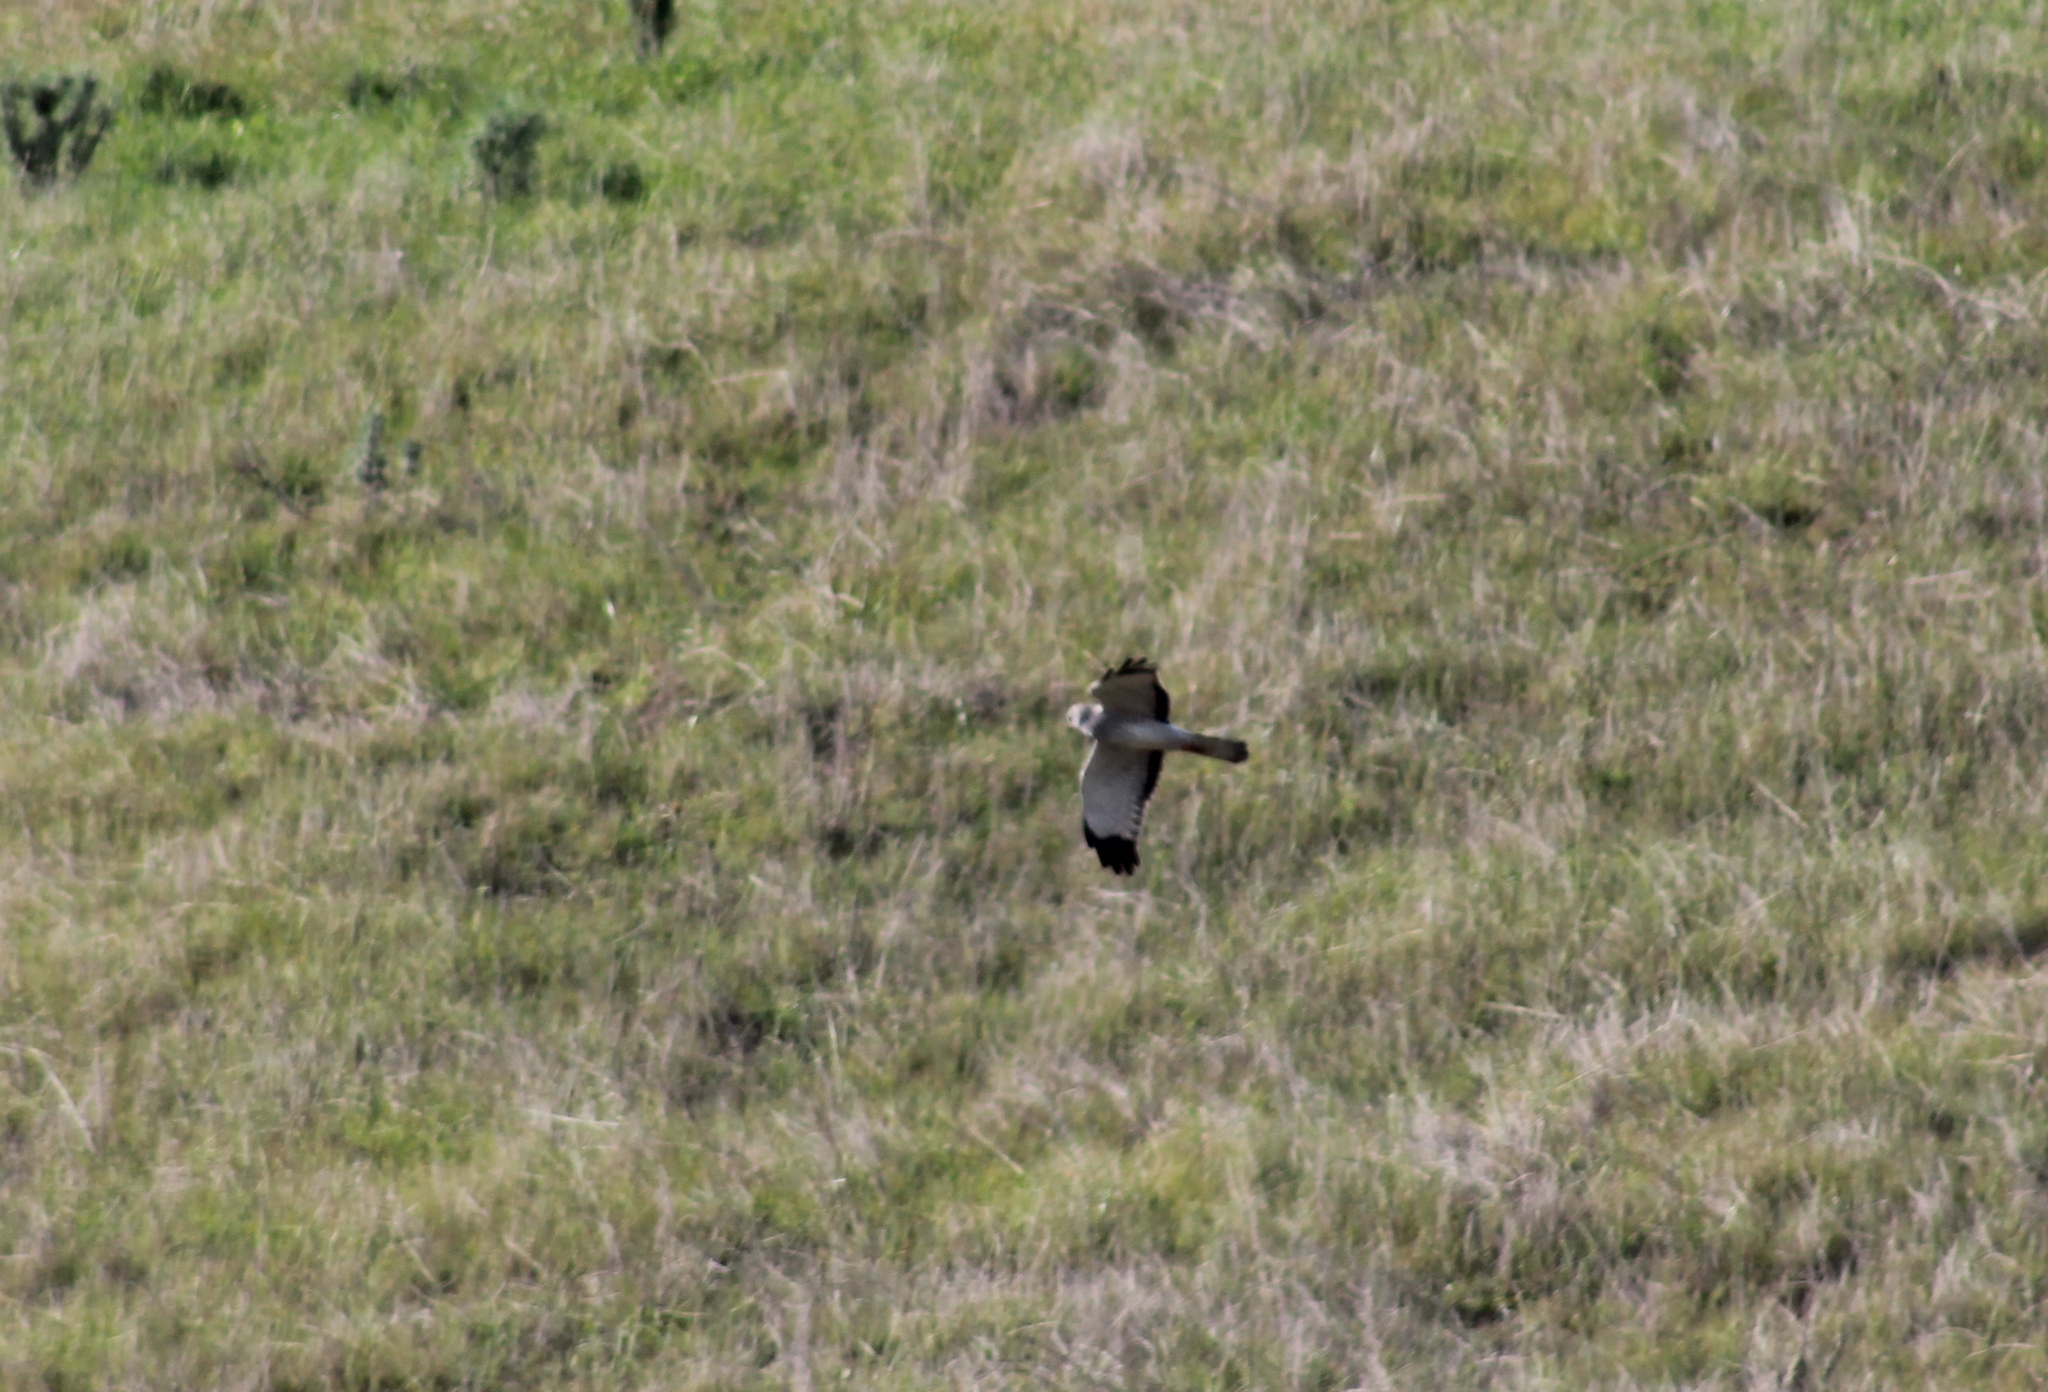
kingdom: Animalia
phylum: Chordata
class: Aves
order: Accipitriformes
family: Accipitridae
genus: Elanus
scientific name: Elanus leucurus
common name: White-tailed kite
